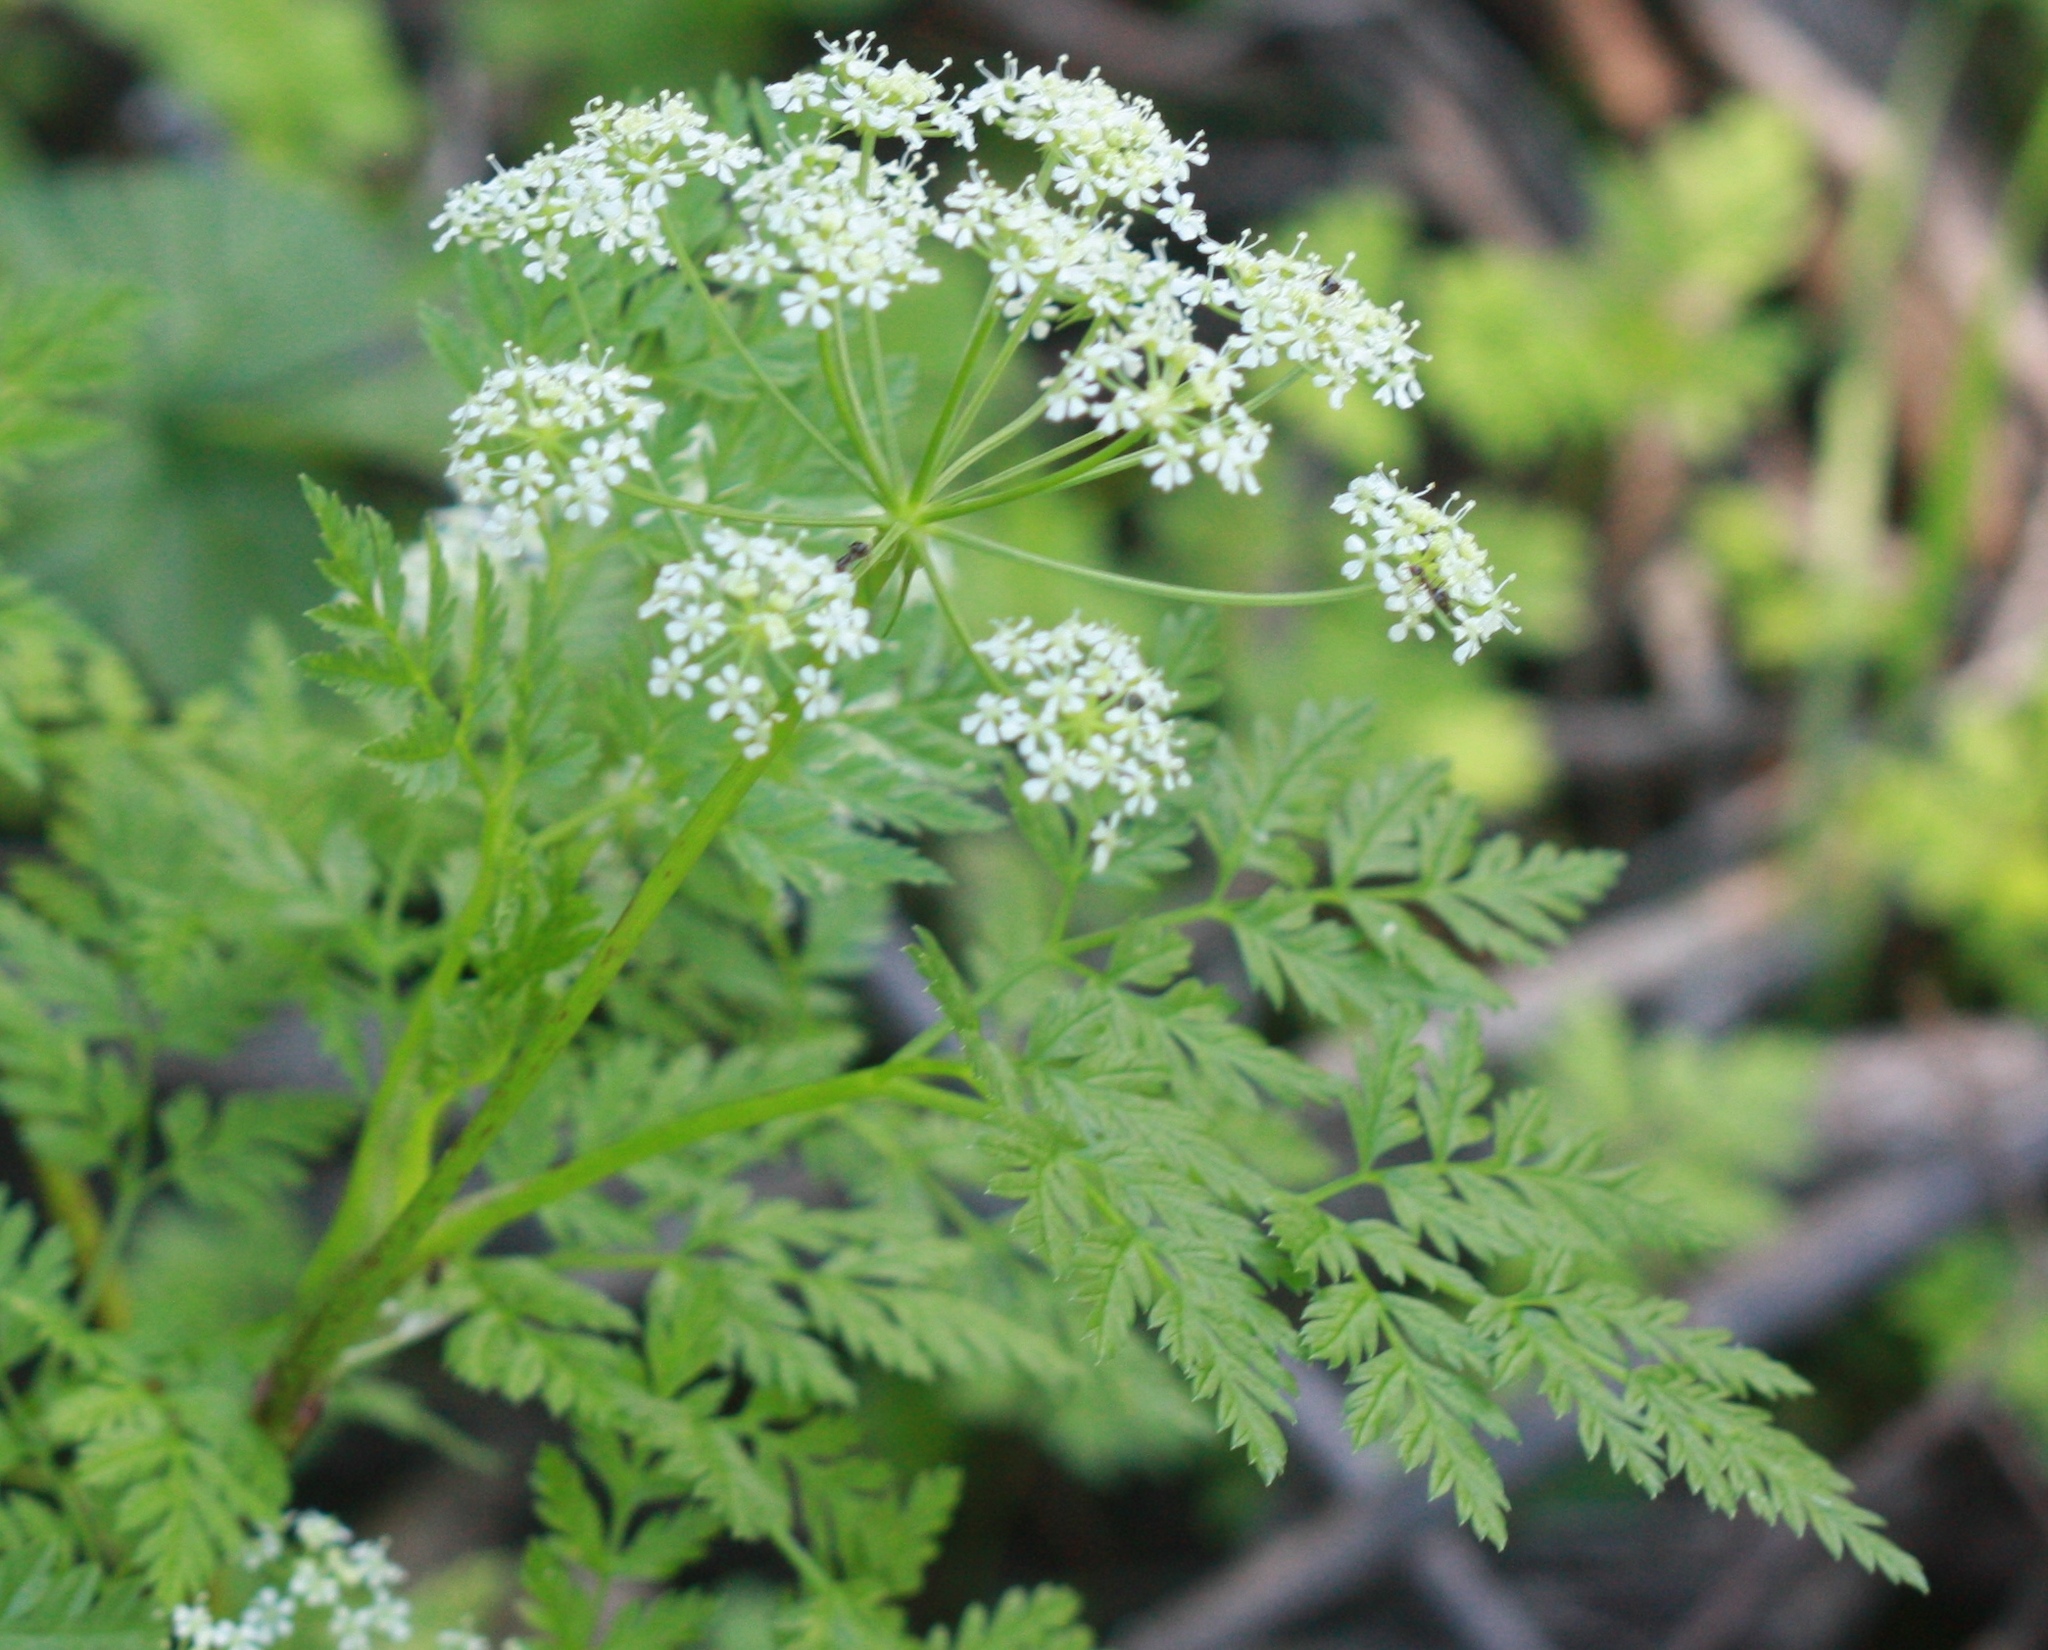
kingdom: Plantae
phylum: Tracheophyta
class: Magnoliopsida
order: Apiales
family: Apiaceae
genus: Conium
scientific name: Conium maculatum
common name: Hemlock
